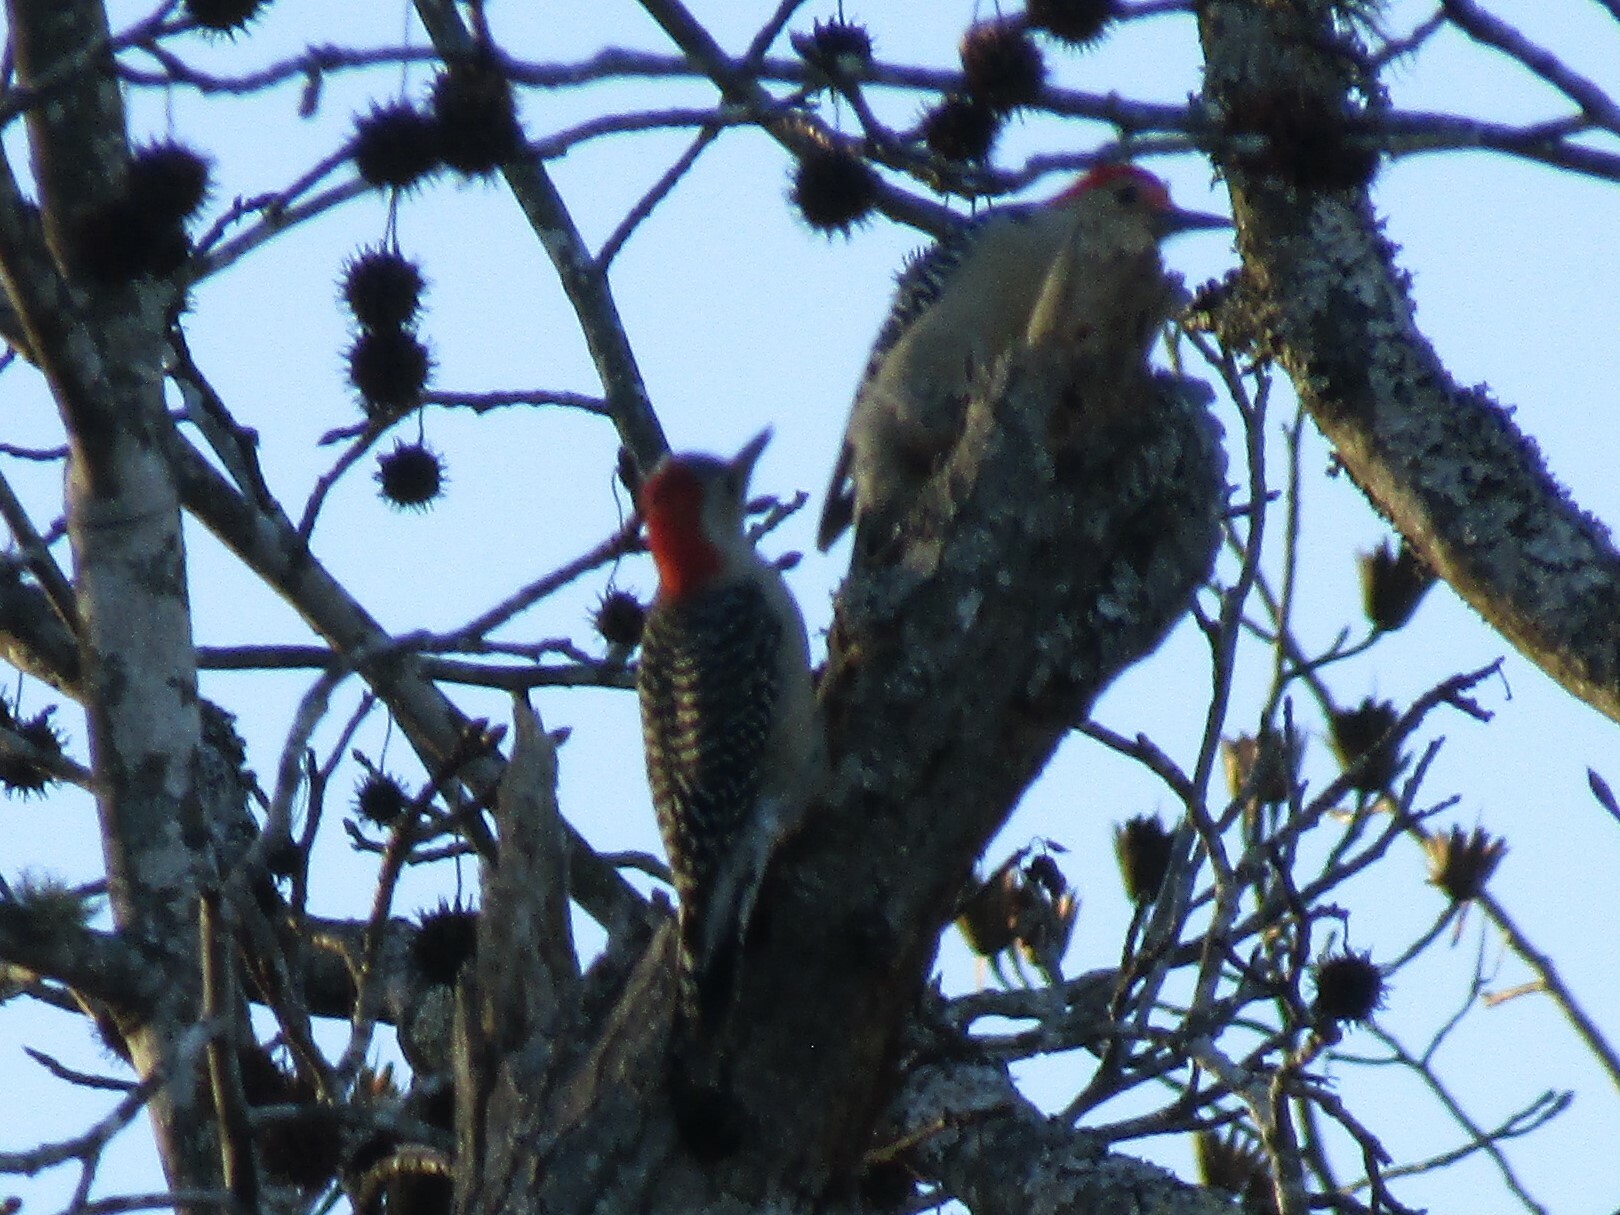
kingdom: Animalia
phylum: Chordata
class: Aves
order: Piciformes
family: Picidae
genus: Melanerpes
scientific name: Melanerpes carolinus
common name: Red-bellied woodpecker
